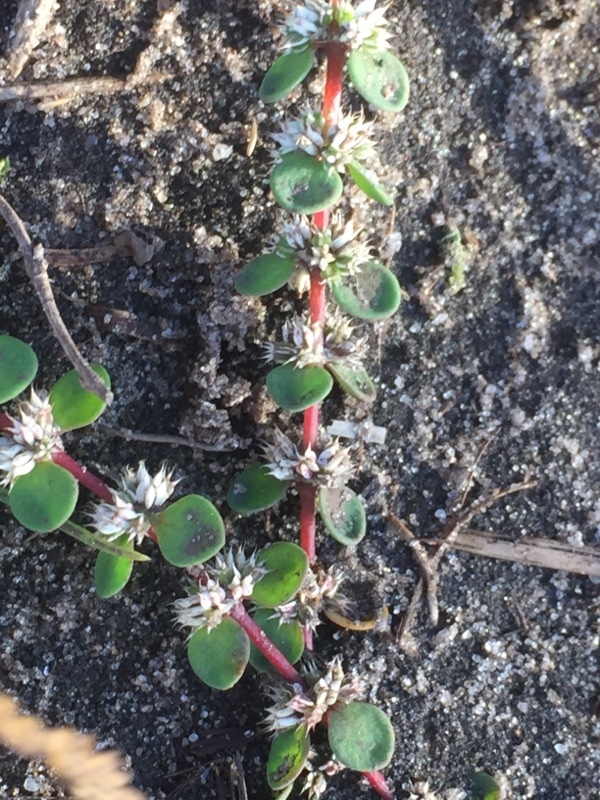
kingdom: Plantae
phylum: Tracheophyta
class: Magnoliopsida
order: Caryophyllales
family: Caryophyllaceae
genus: Illecebrum
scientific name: Illecebrum verticillatum
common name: Coral necklace
